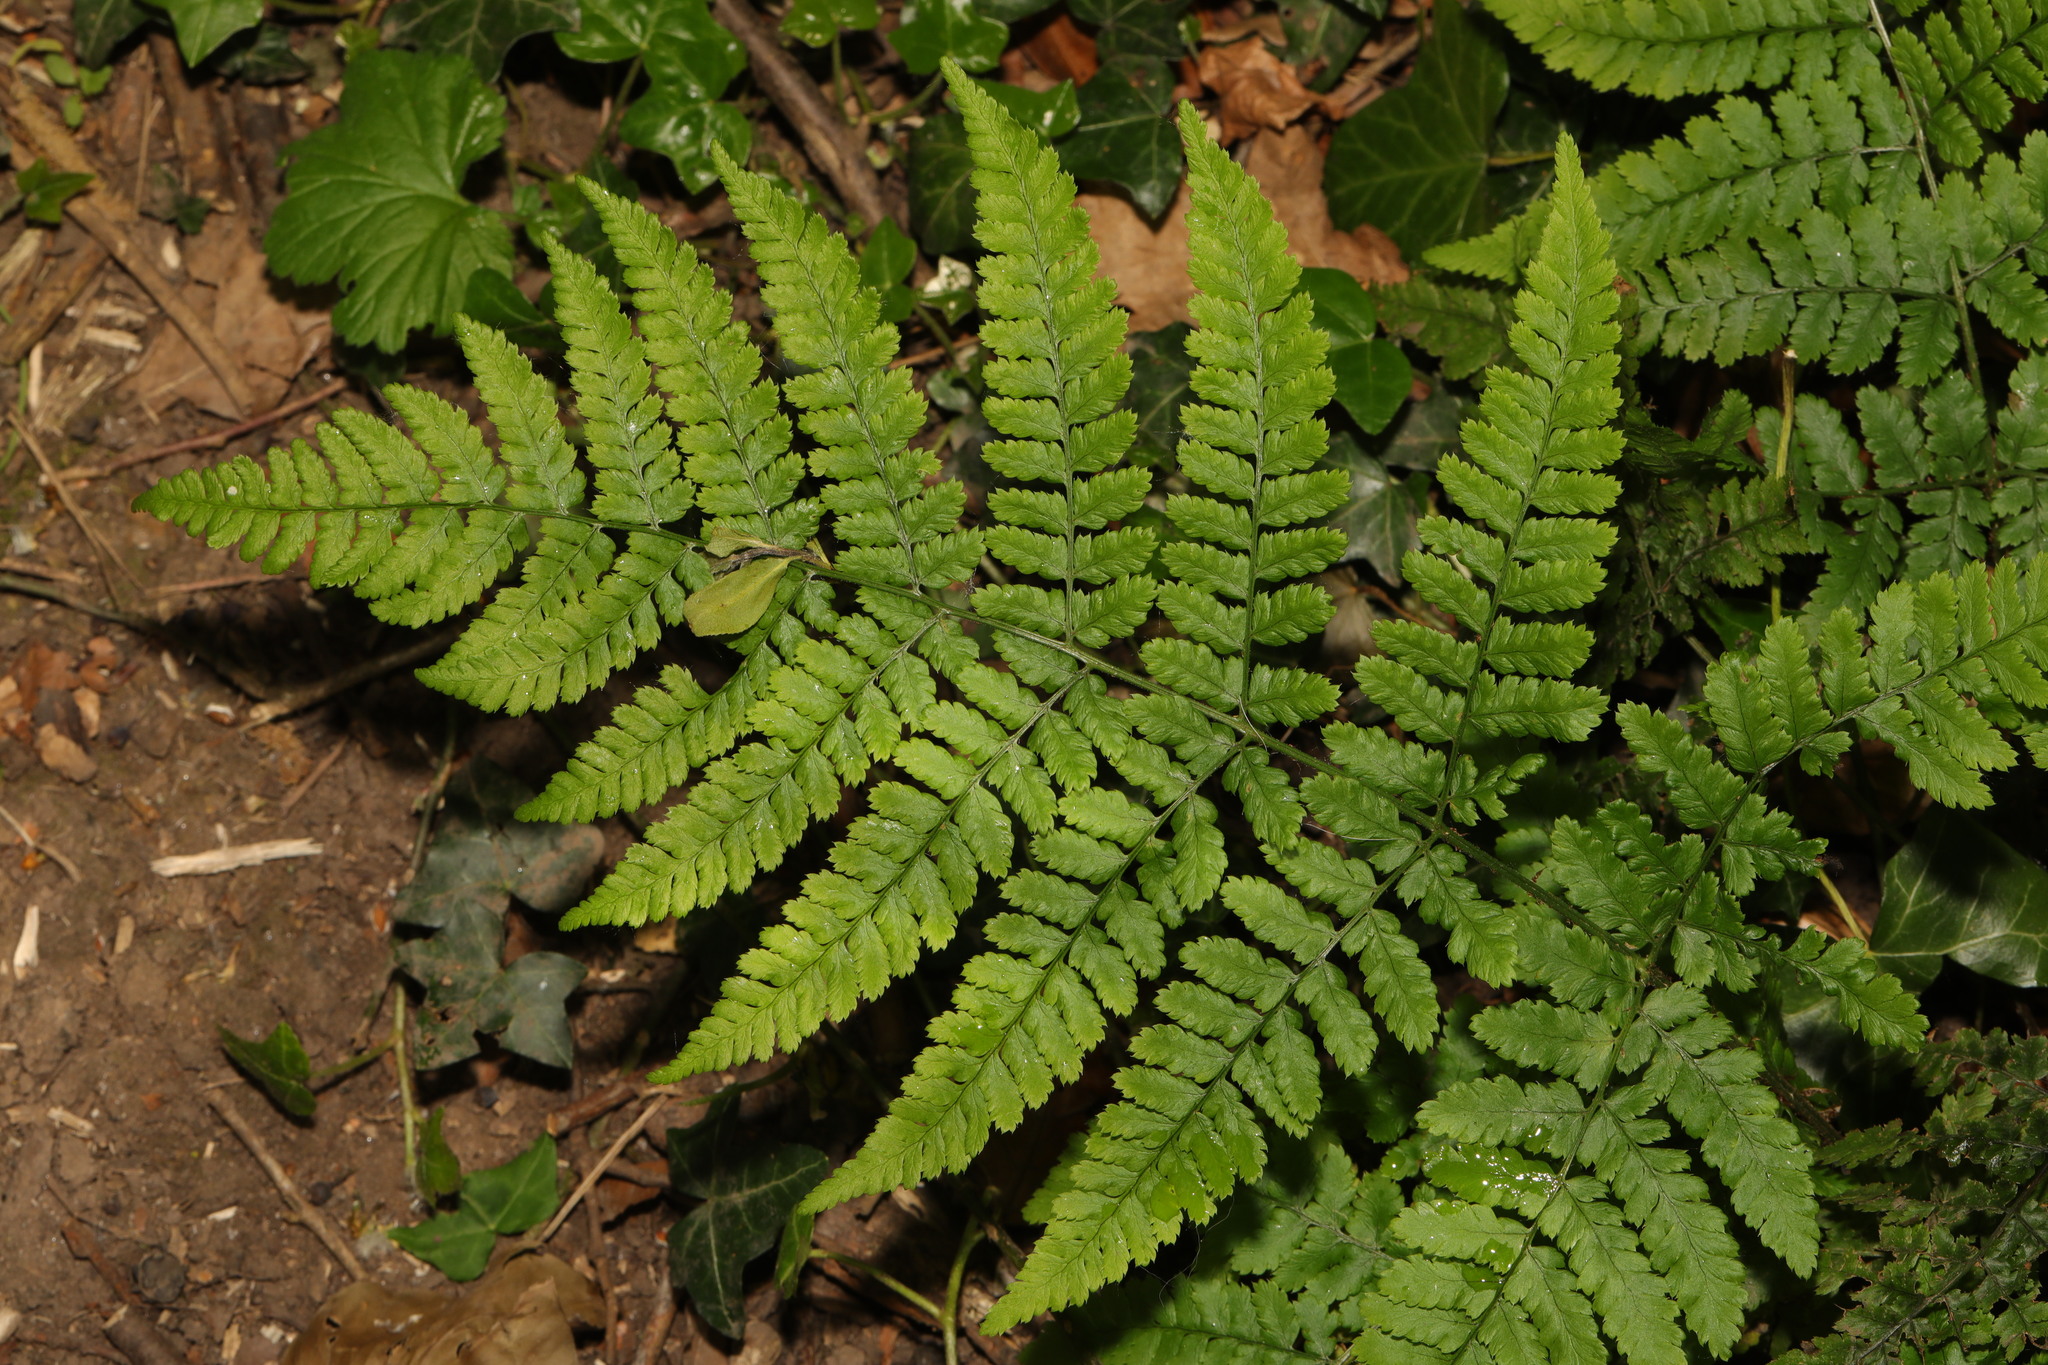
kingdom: Plantae
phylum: Tracheophyta
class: Polypodiopsida
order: Polypodiales
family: Dryopteridaceae
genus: Dryopteris
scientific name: Dryopteris dilatata
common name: Broad buckler-fern
